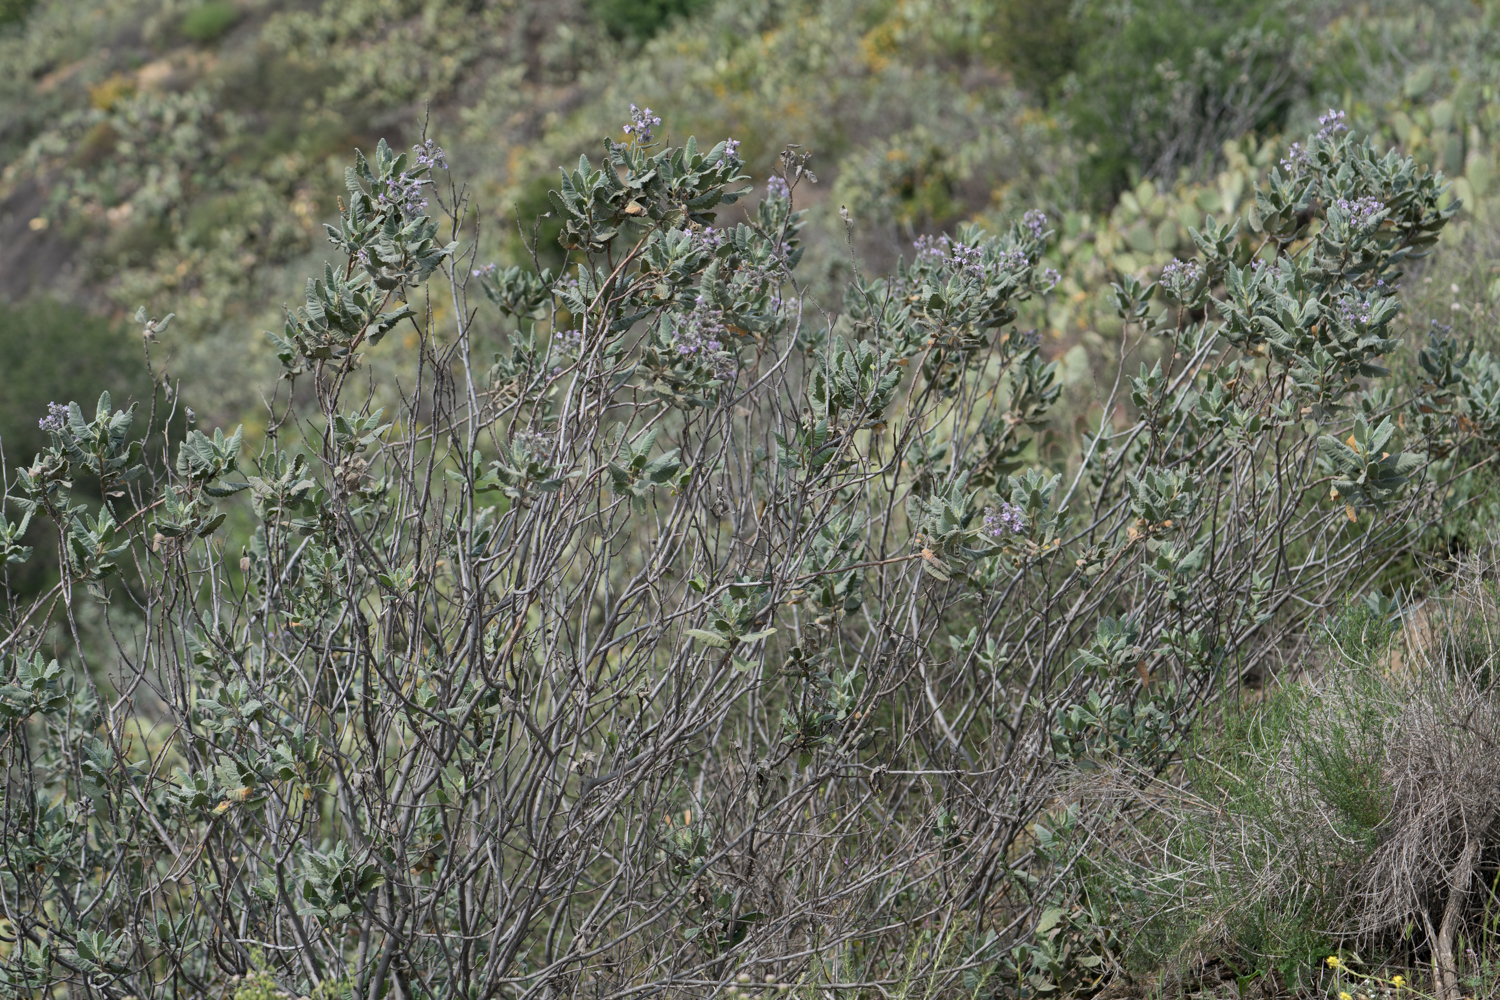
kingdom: Plantae
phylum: Tracheophyta
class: Magnoliopsida
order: Boraginales
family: Namaceae
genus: Eriodictyon
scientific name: Eriodictyon crassifolium
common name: Thick-leaf yerba-santa
